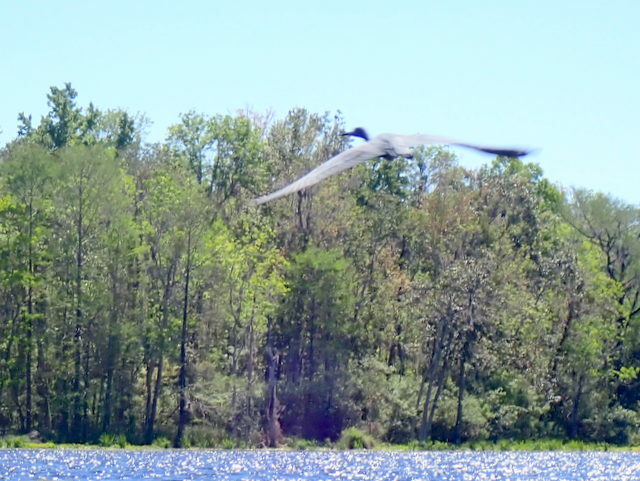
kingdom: Animalia
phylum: Chordata
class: Aves
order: Pelecaniformes
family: Ardeidae
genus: Egretta
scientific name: Egretta caerulea
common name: Little blue heron
